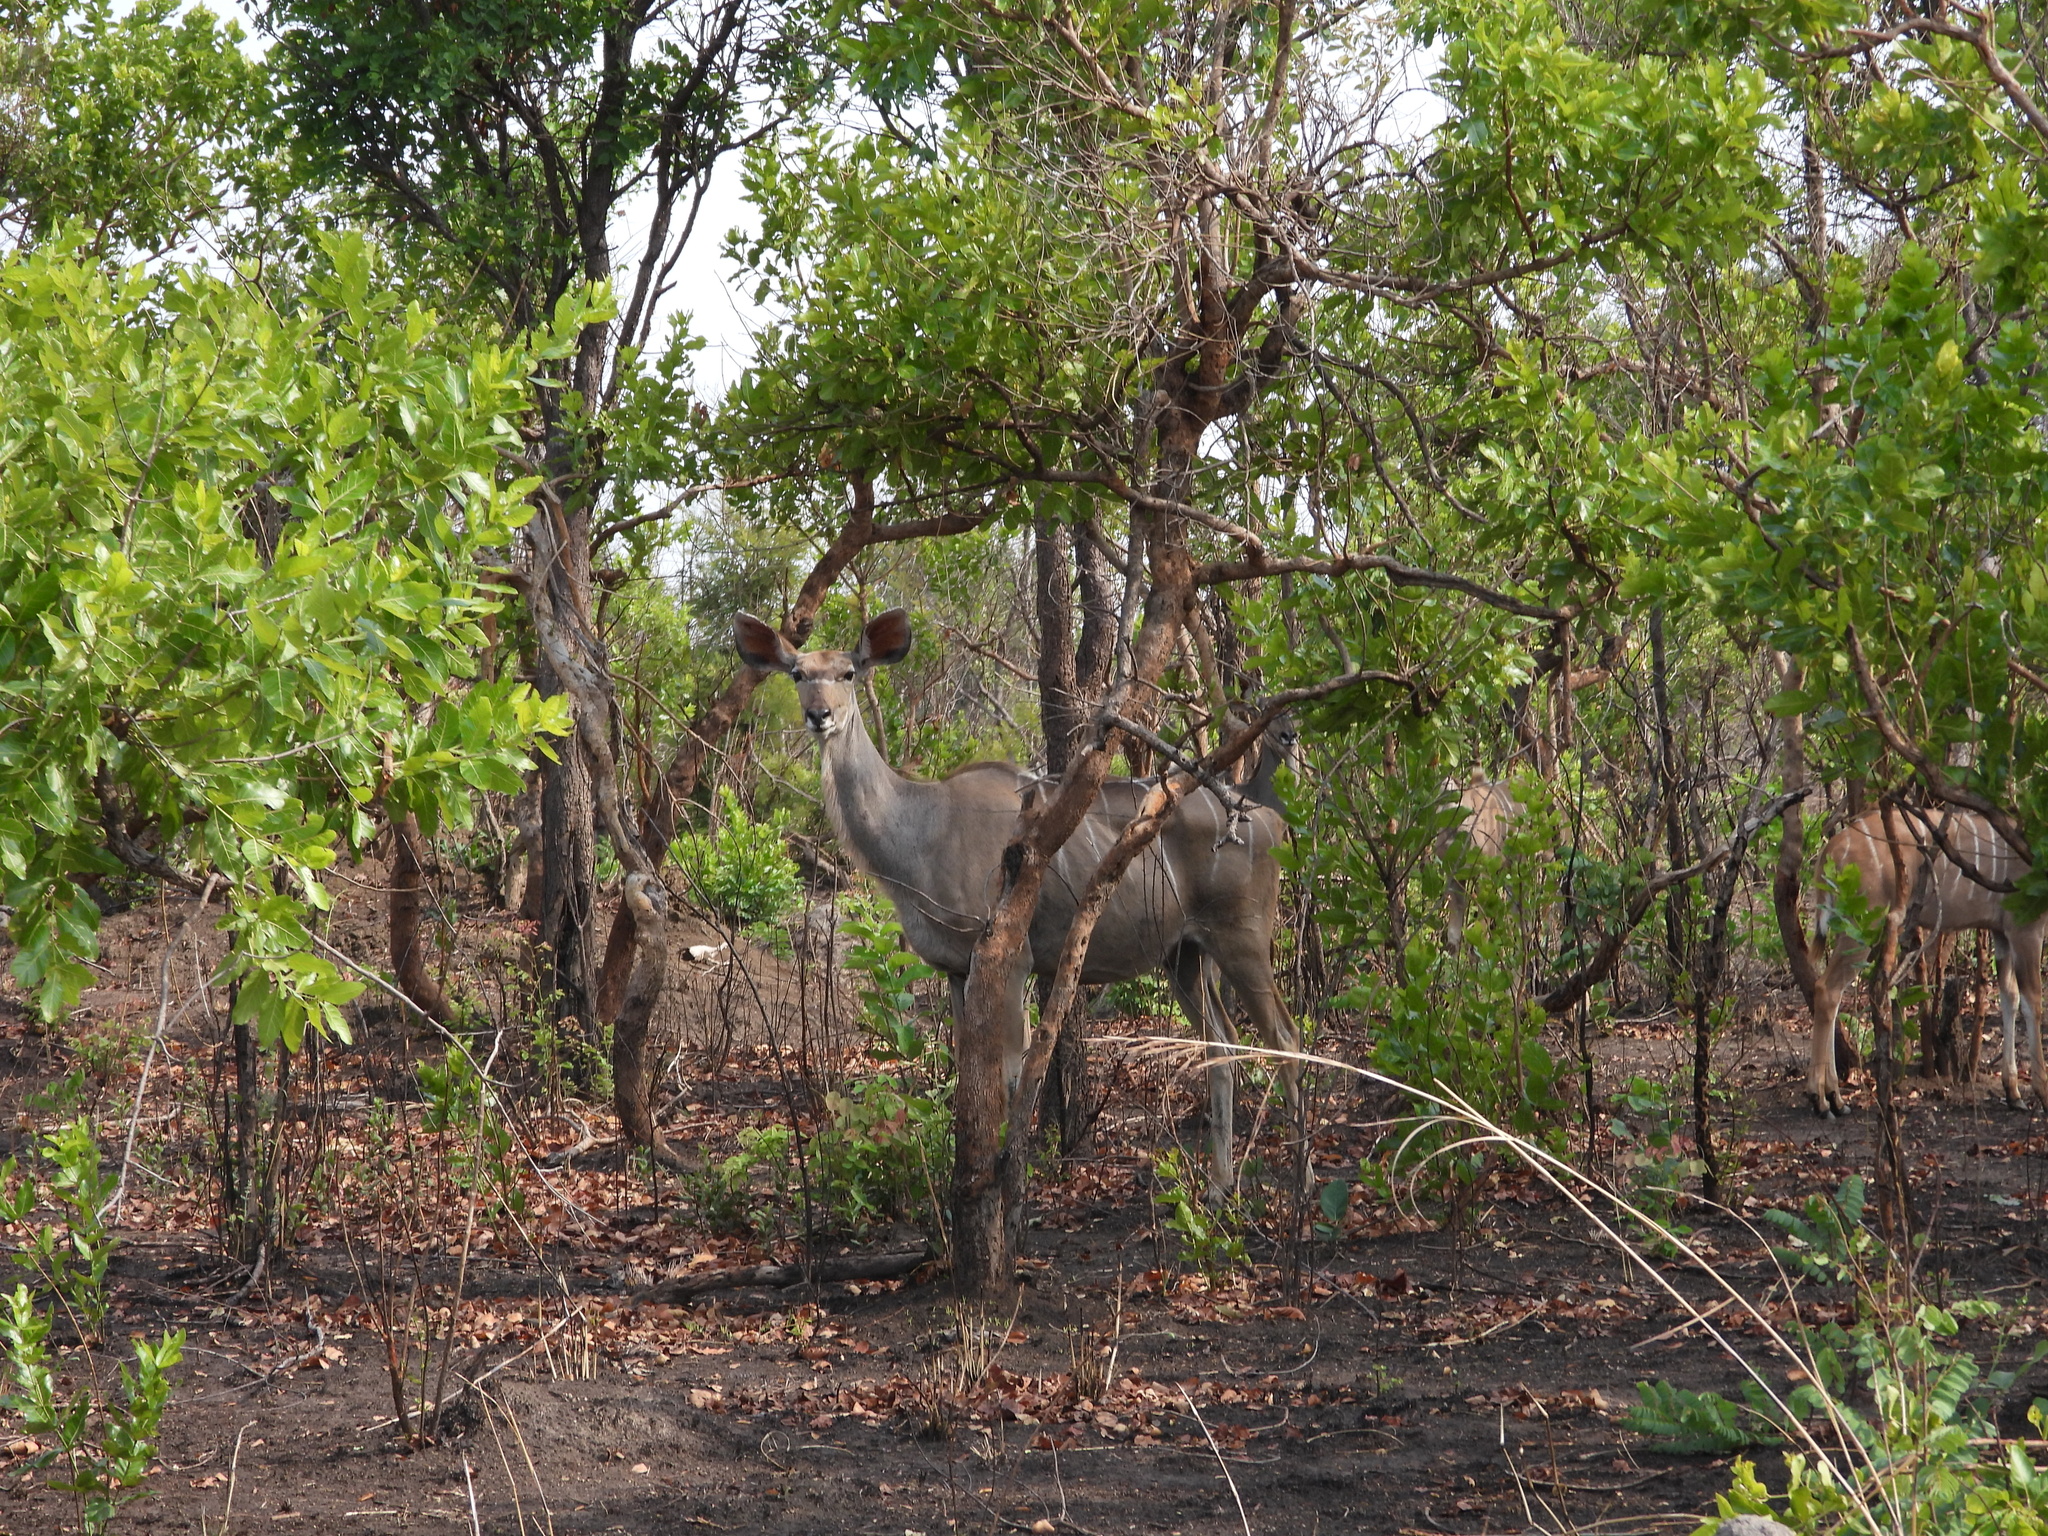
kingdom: Animalia
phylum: Chordata
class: Mammalia
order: Artiodactyla
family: Bovidae
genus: Tragelaphus
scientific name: Tragelaphus strepsiceros
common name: Greater kudu
